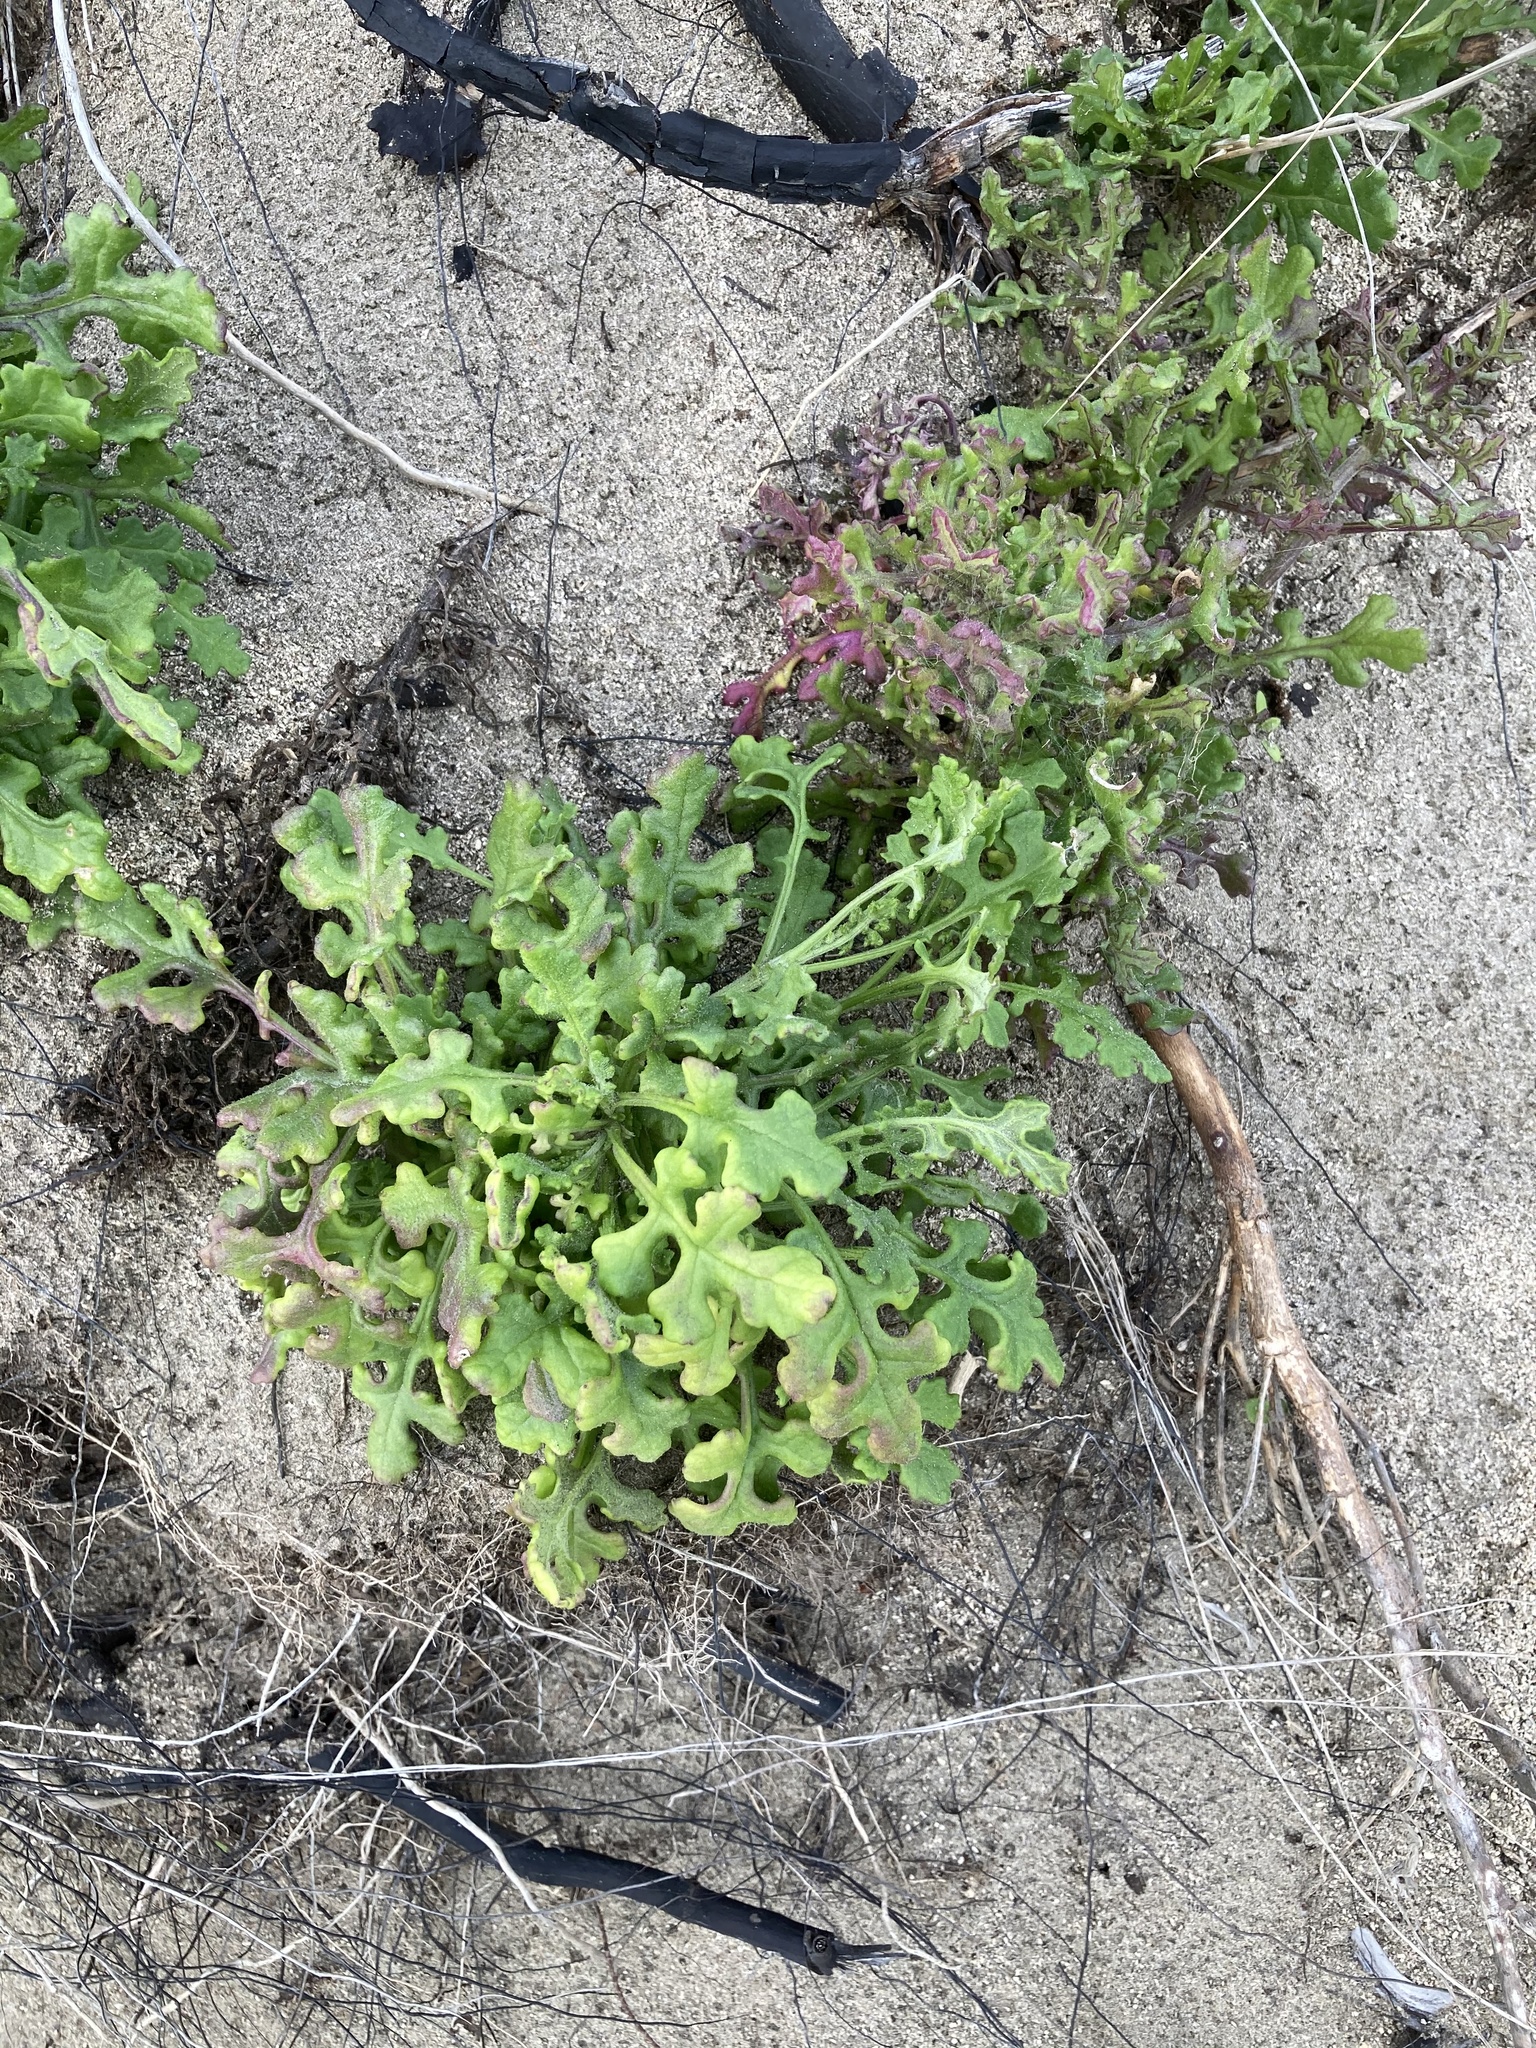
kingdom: Plantae
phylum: Tracheophyta
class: Magnoliopsida
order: Asterales
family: Asteraceae
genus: Senecio
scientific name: Senecio elegans
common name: Purple groundsel
